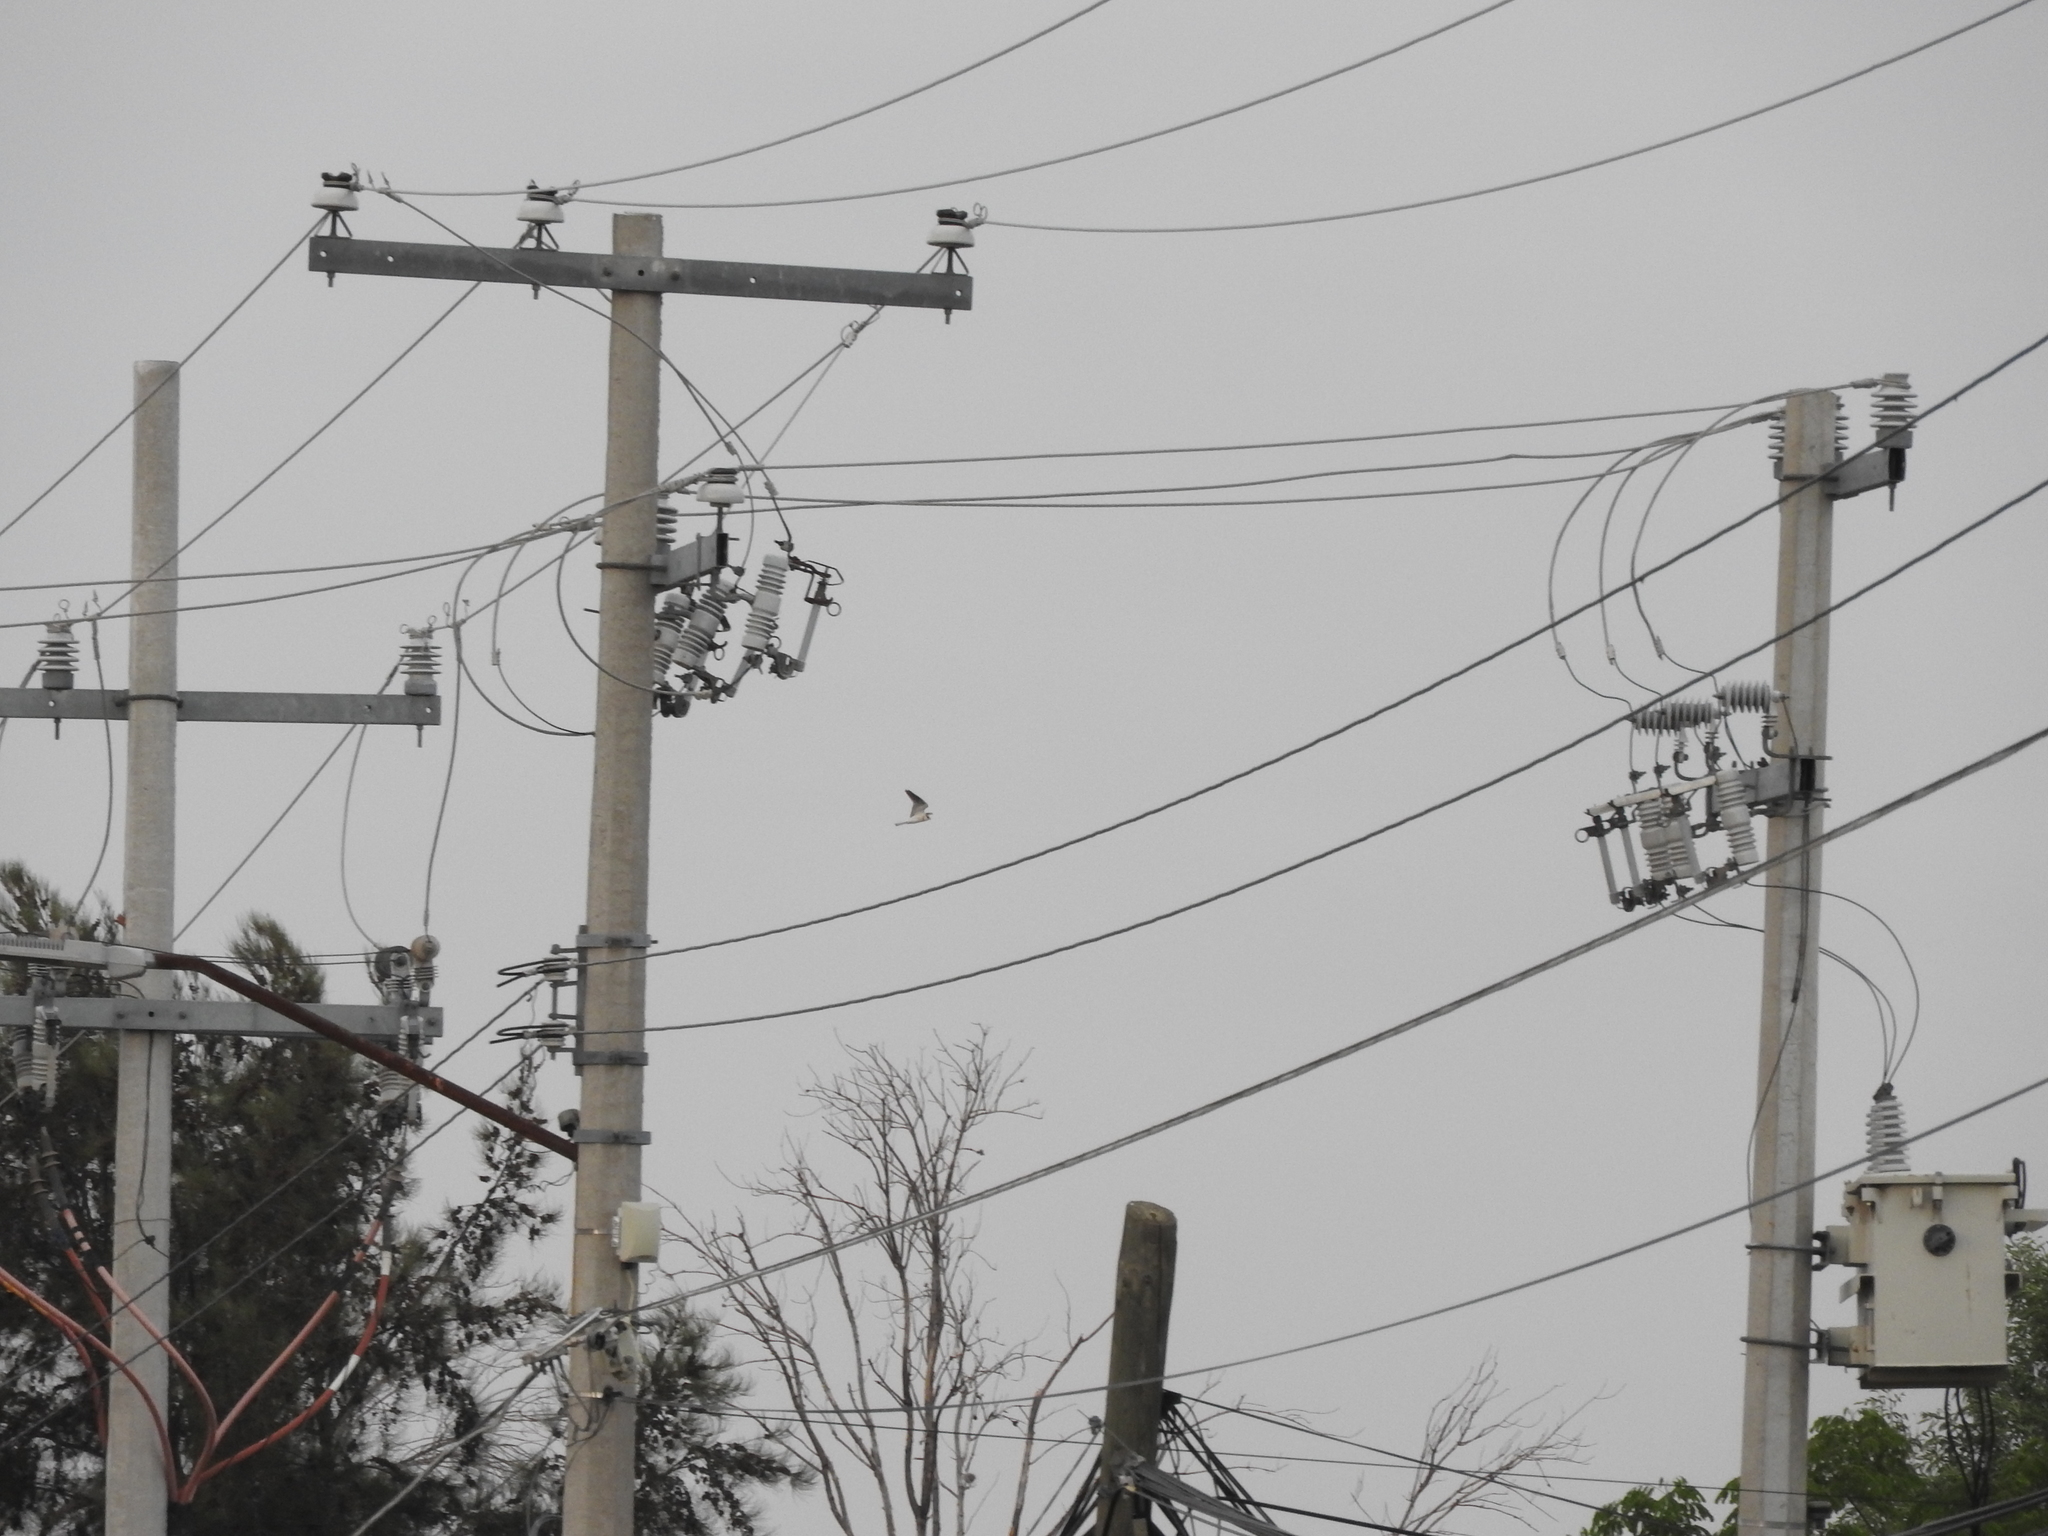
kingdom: Animalia
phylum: Chordata
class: Aves
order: Accipitriformes
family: Accipitridae
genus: Elanus
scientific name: Elanus leucurus
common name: White-tailed kite
